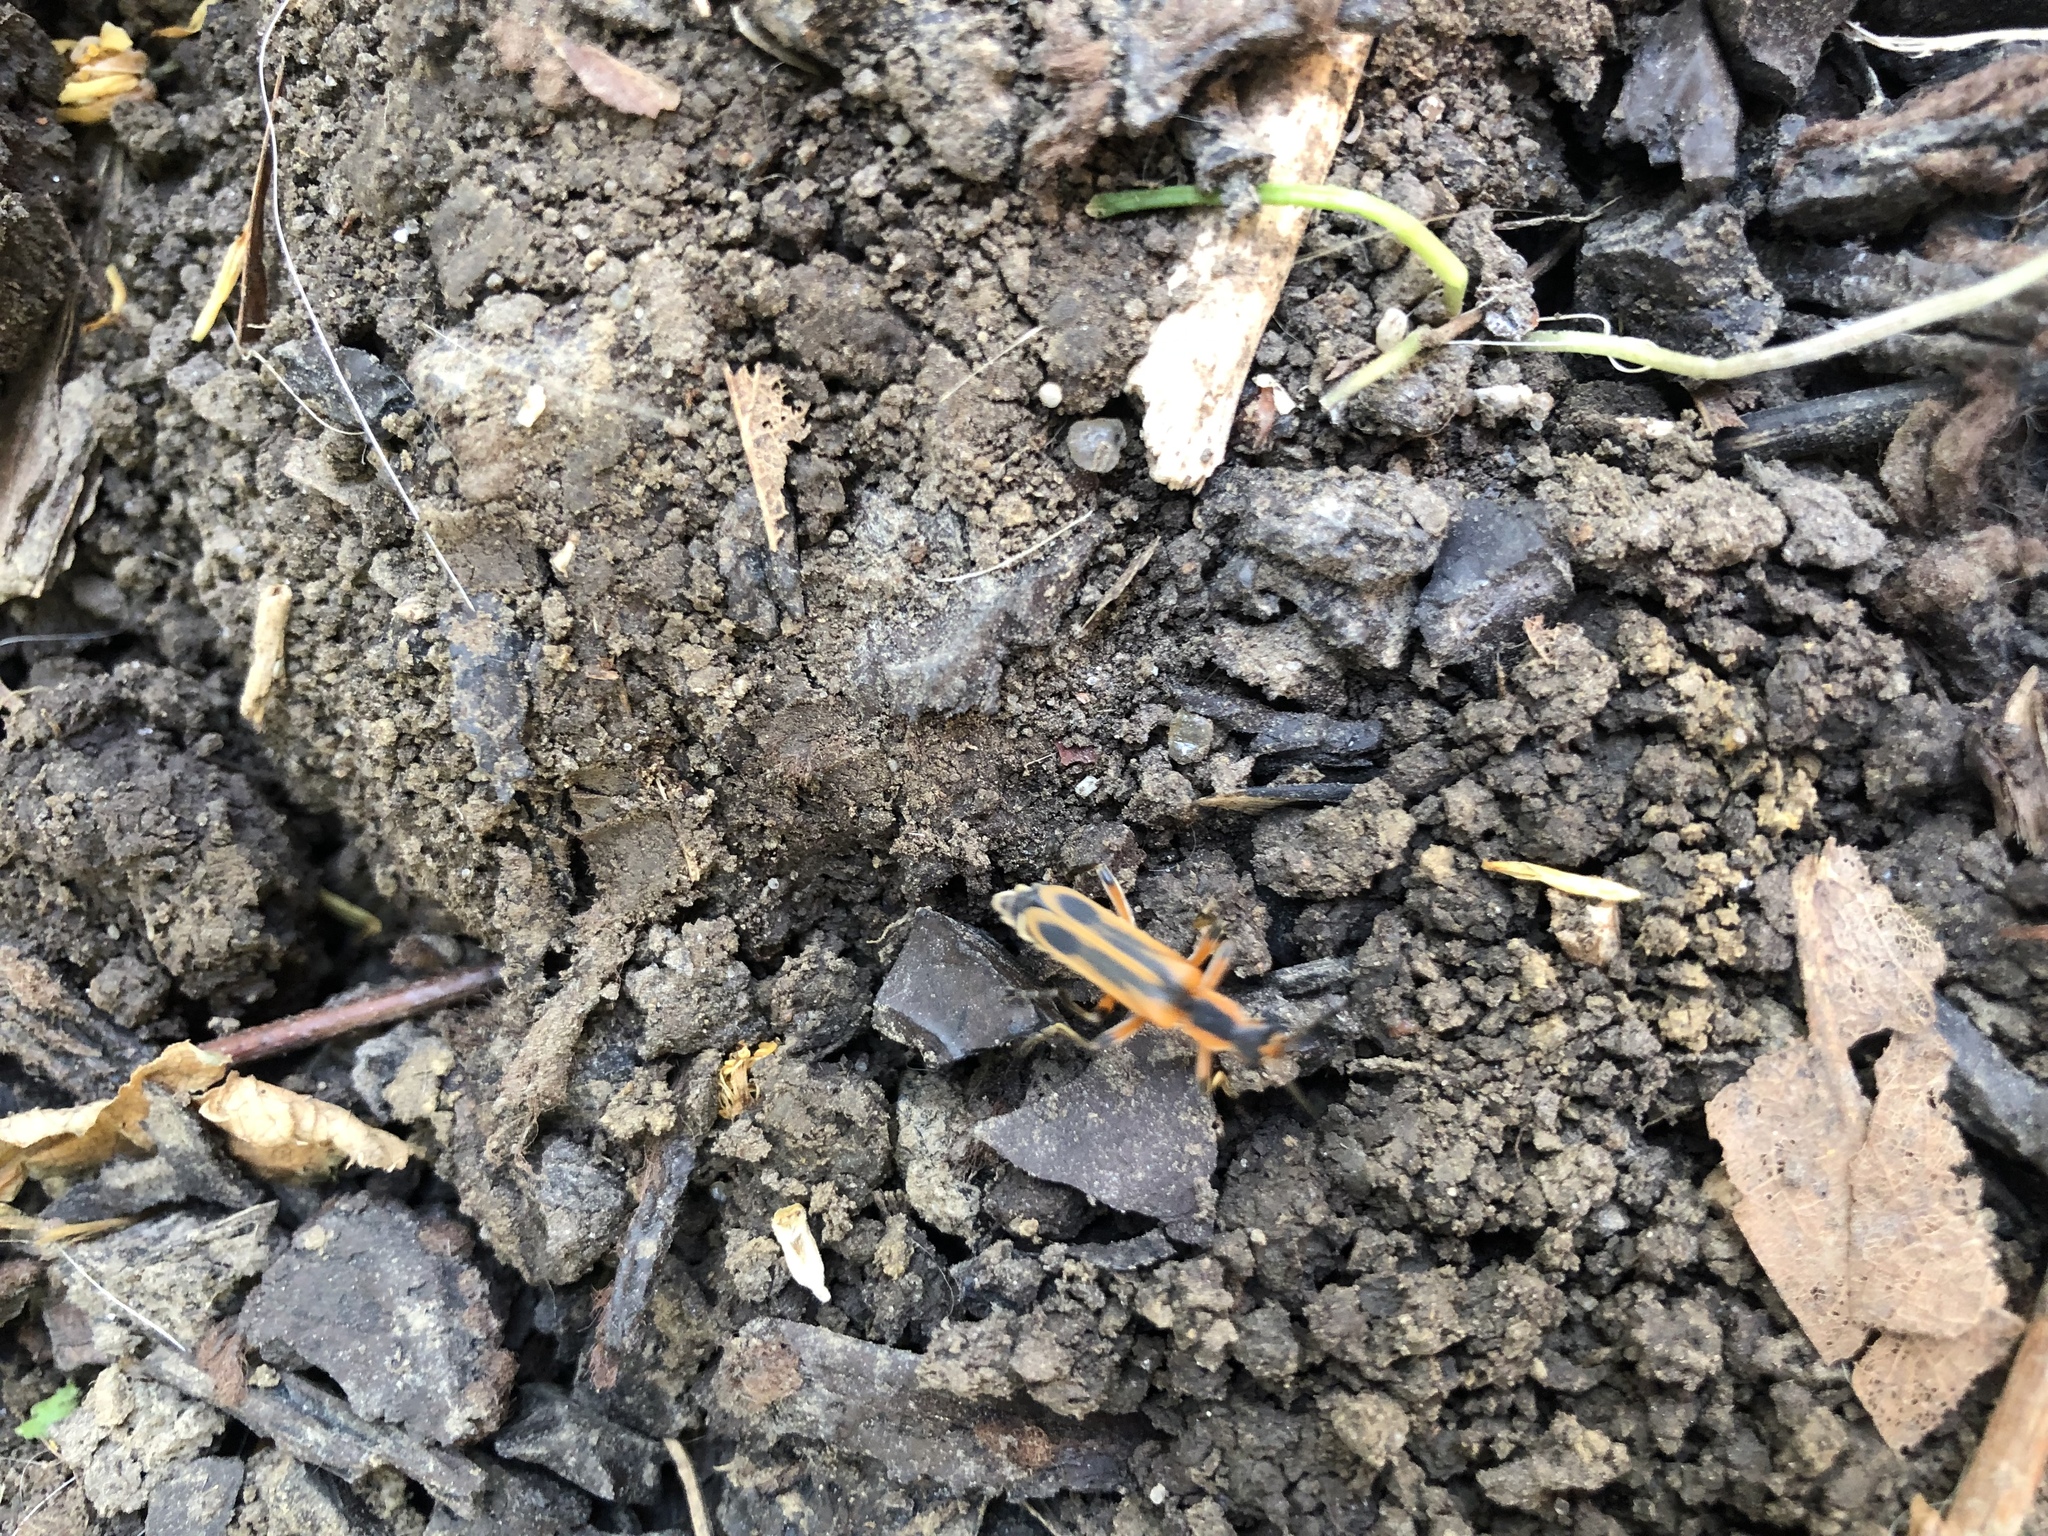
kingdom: Animalia
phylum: Arthropoda
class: Insecta
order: Coleoptera
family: Cantharidae
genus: Chauliognathus
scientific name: Chauliognathus marginatus
